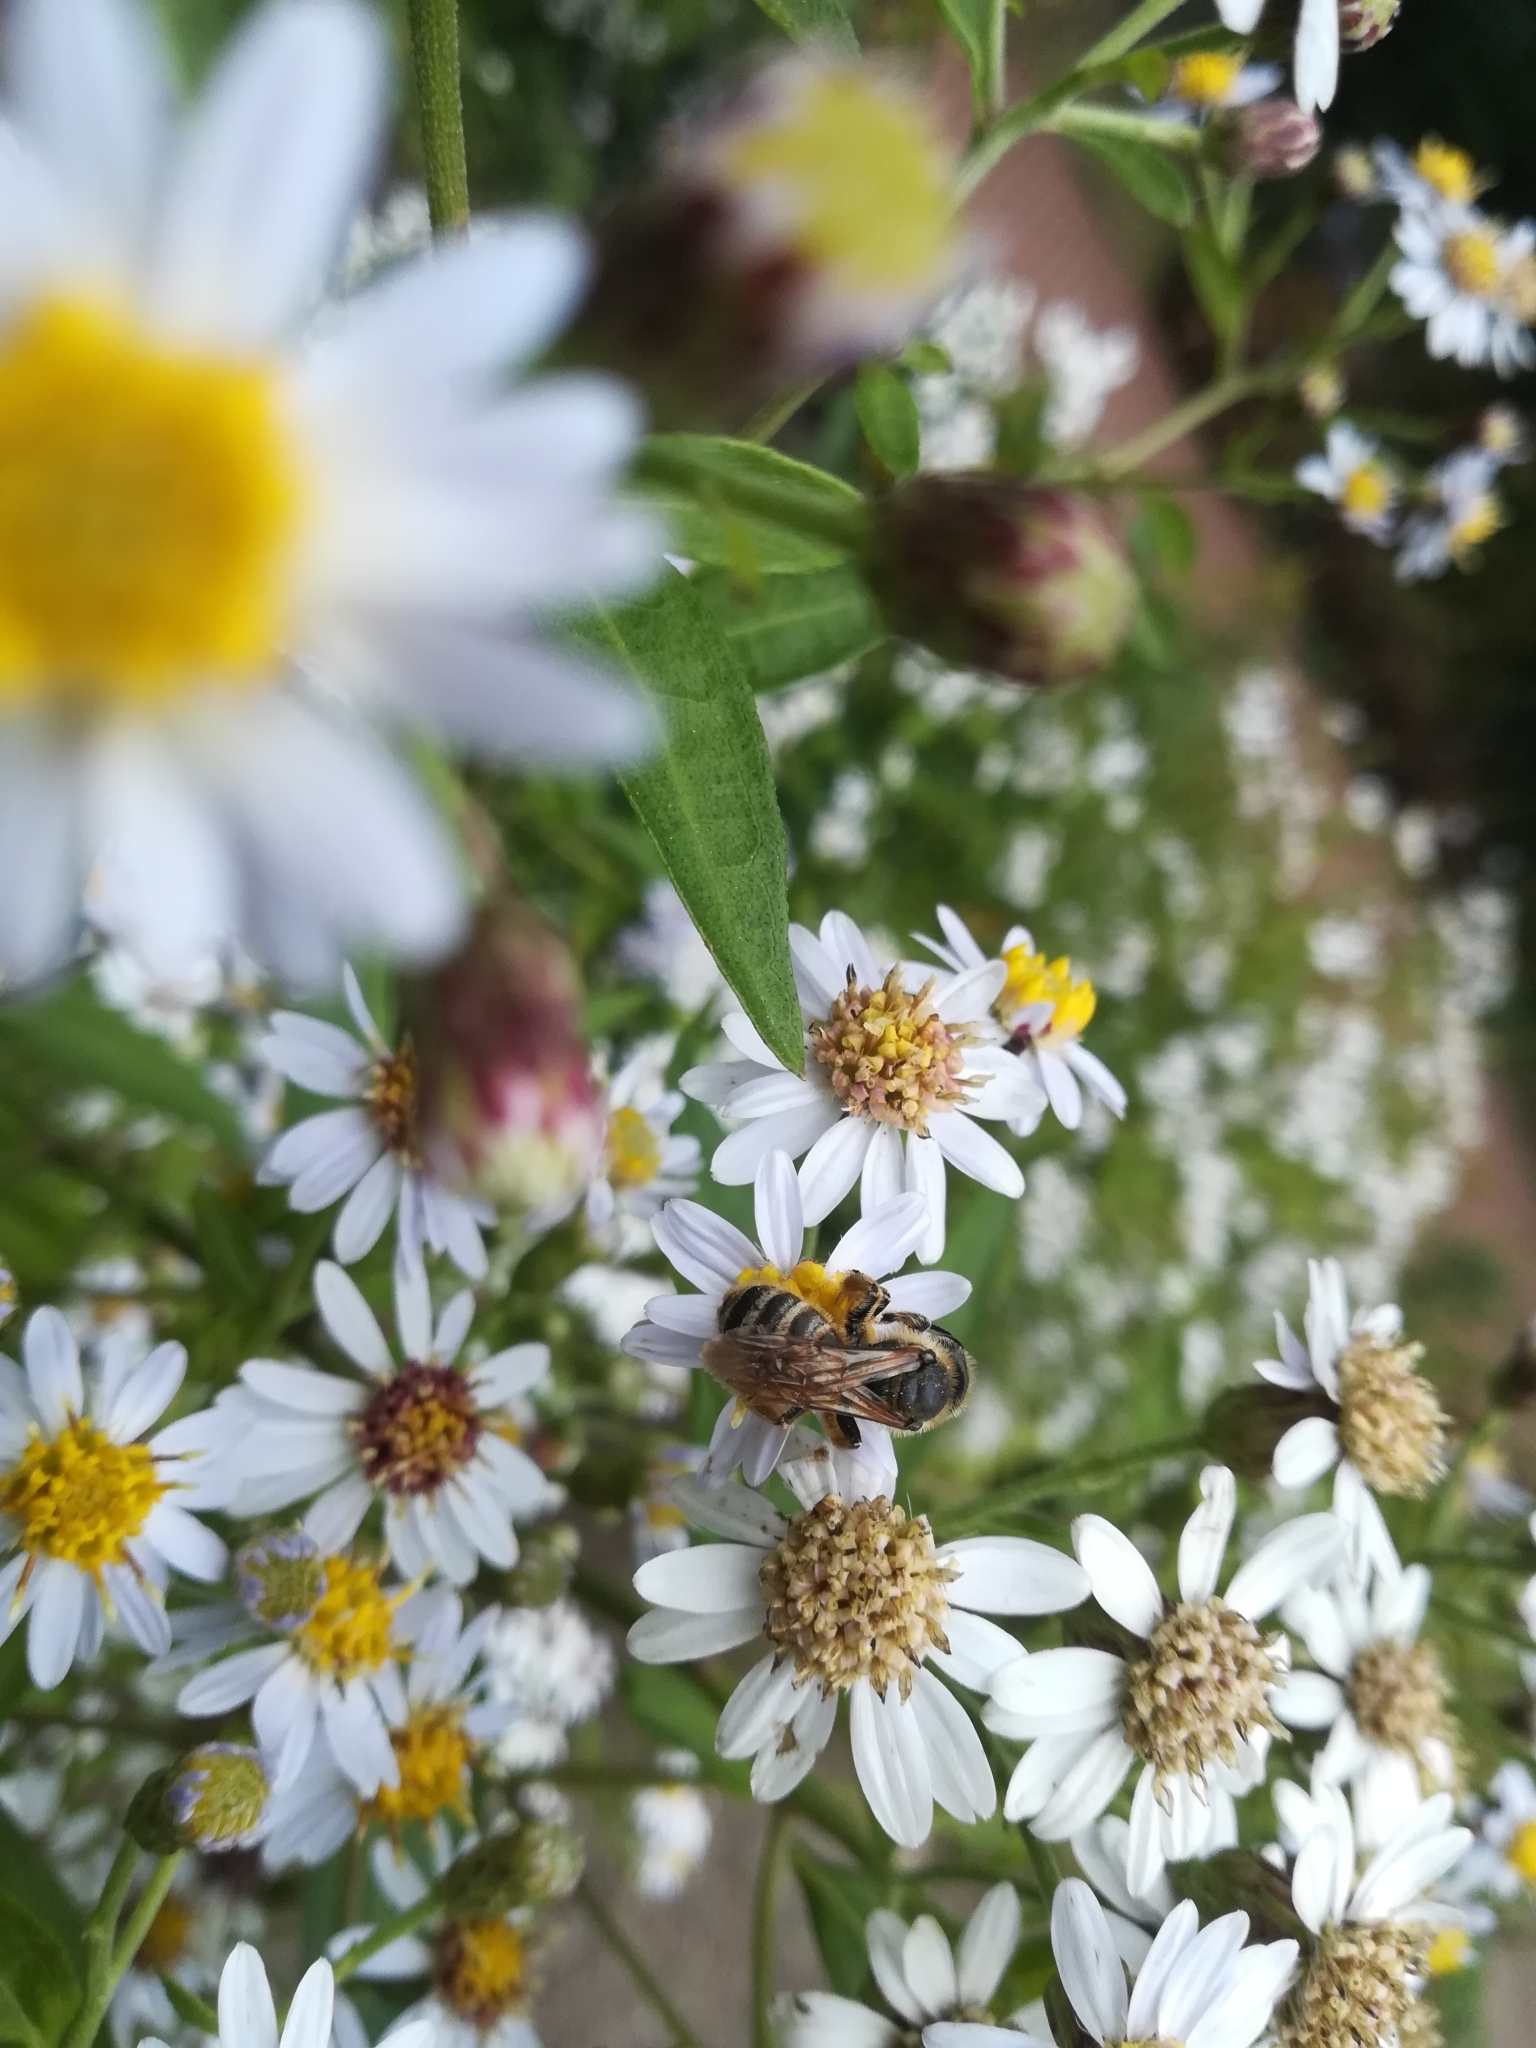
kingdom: Animalia
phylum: Arthropoda
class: Insecta
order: Hymenoptera
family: Halictidae
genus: Halictus
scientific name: Halictus scabiosae
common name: Great banded furrow bee
